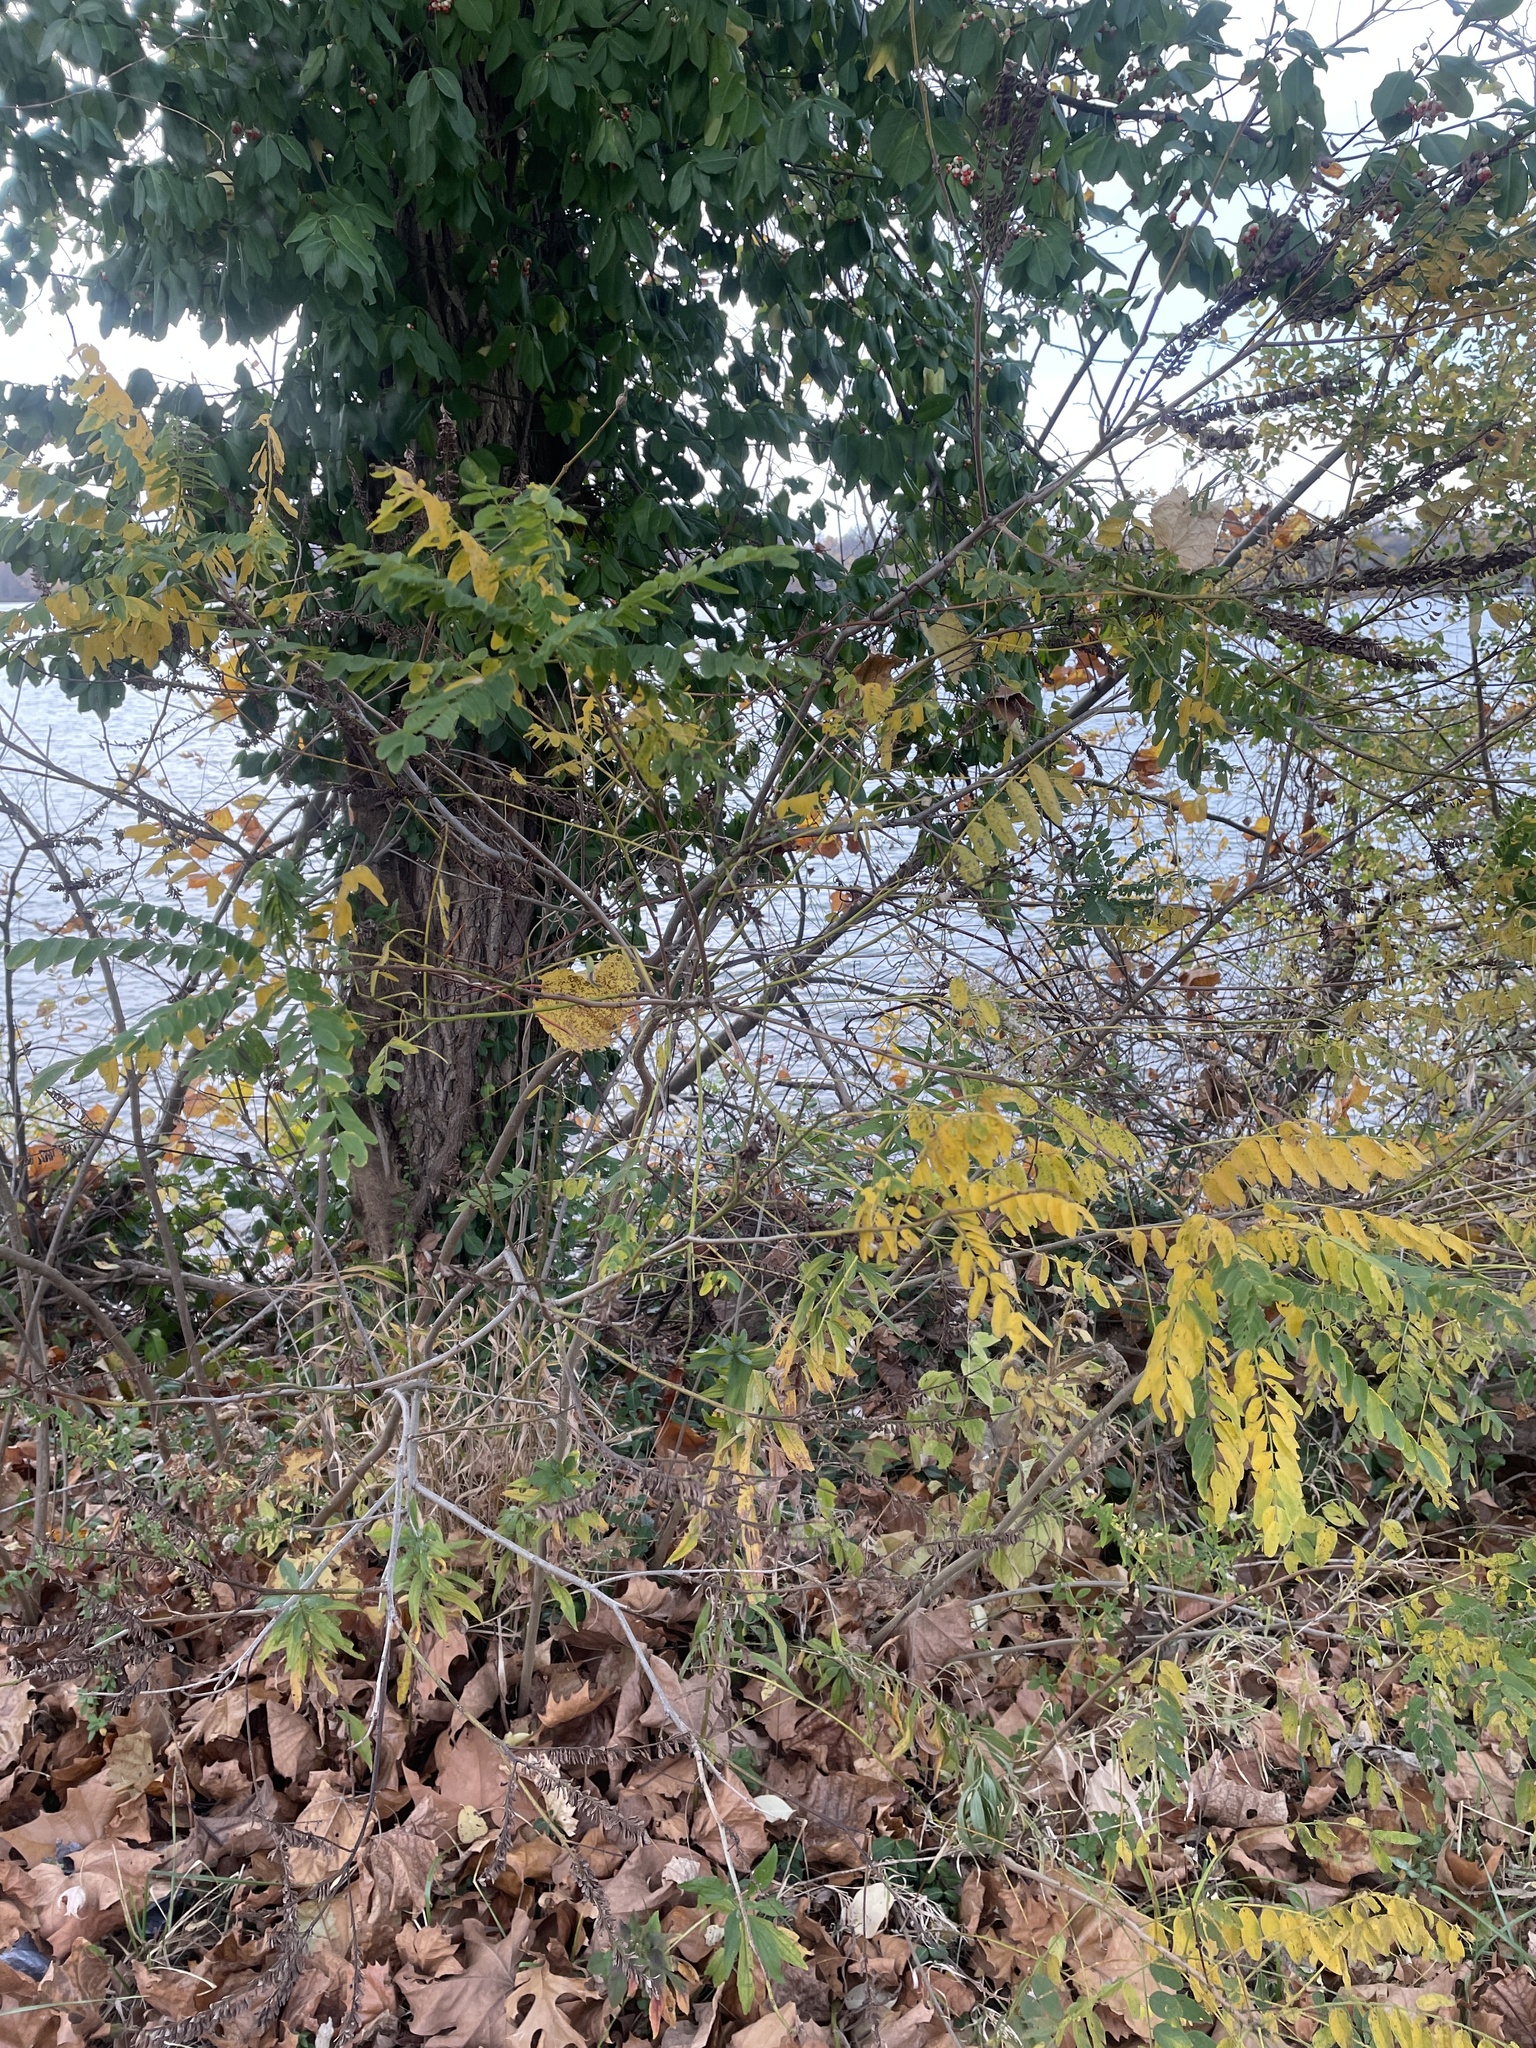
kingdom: Plantae
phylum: Tracheophyta
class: Magnoliopsida
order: Fabales
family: Fabaceae
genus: Amorpha
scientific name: Amorpha fruticosa
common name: False indigo
